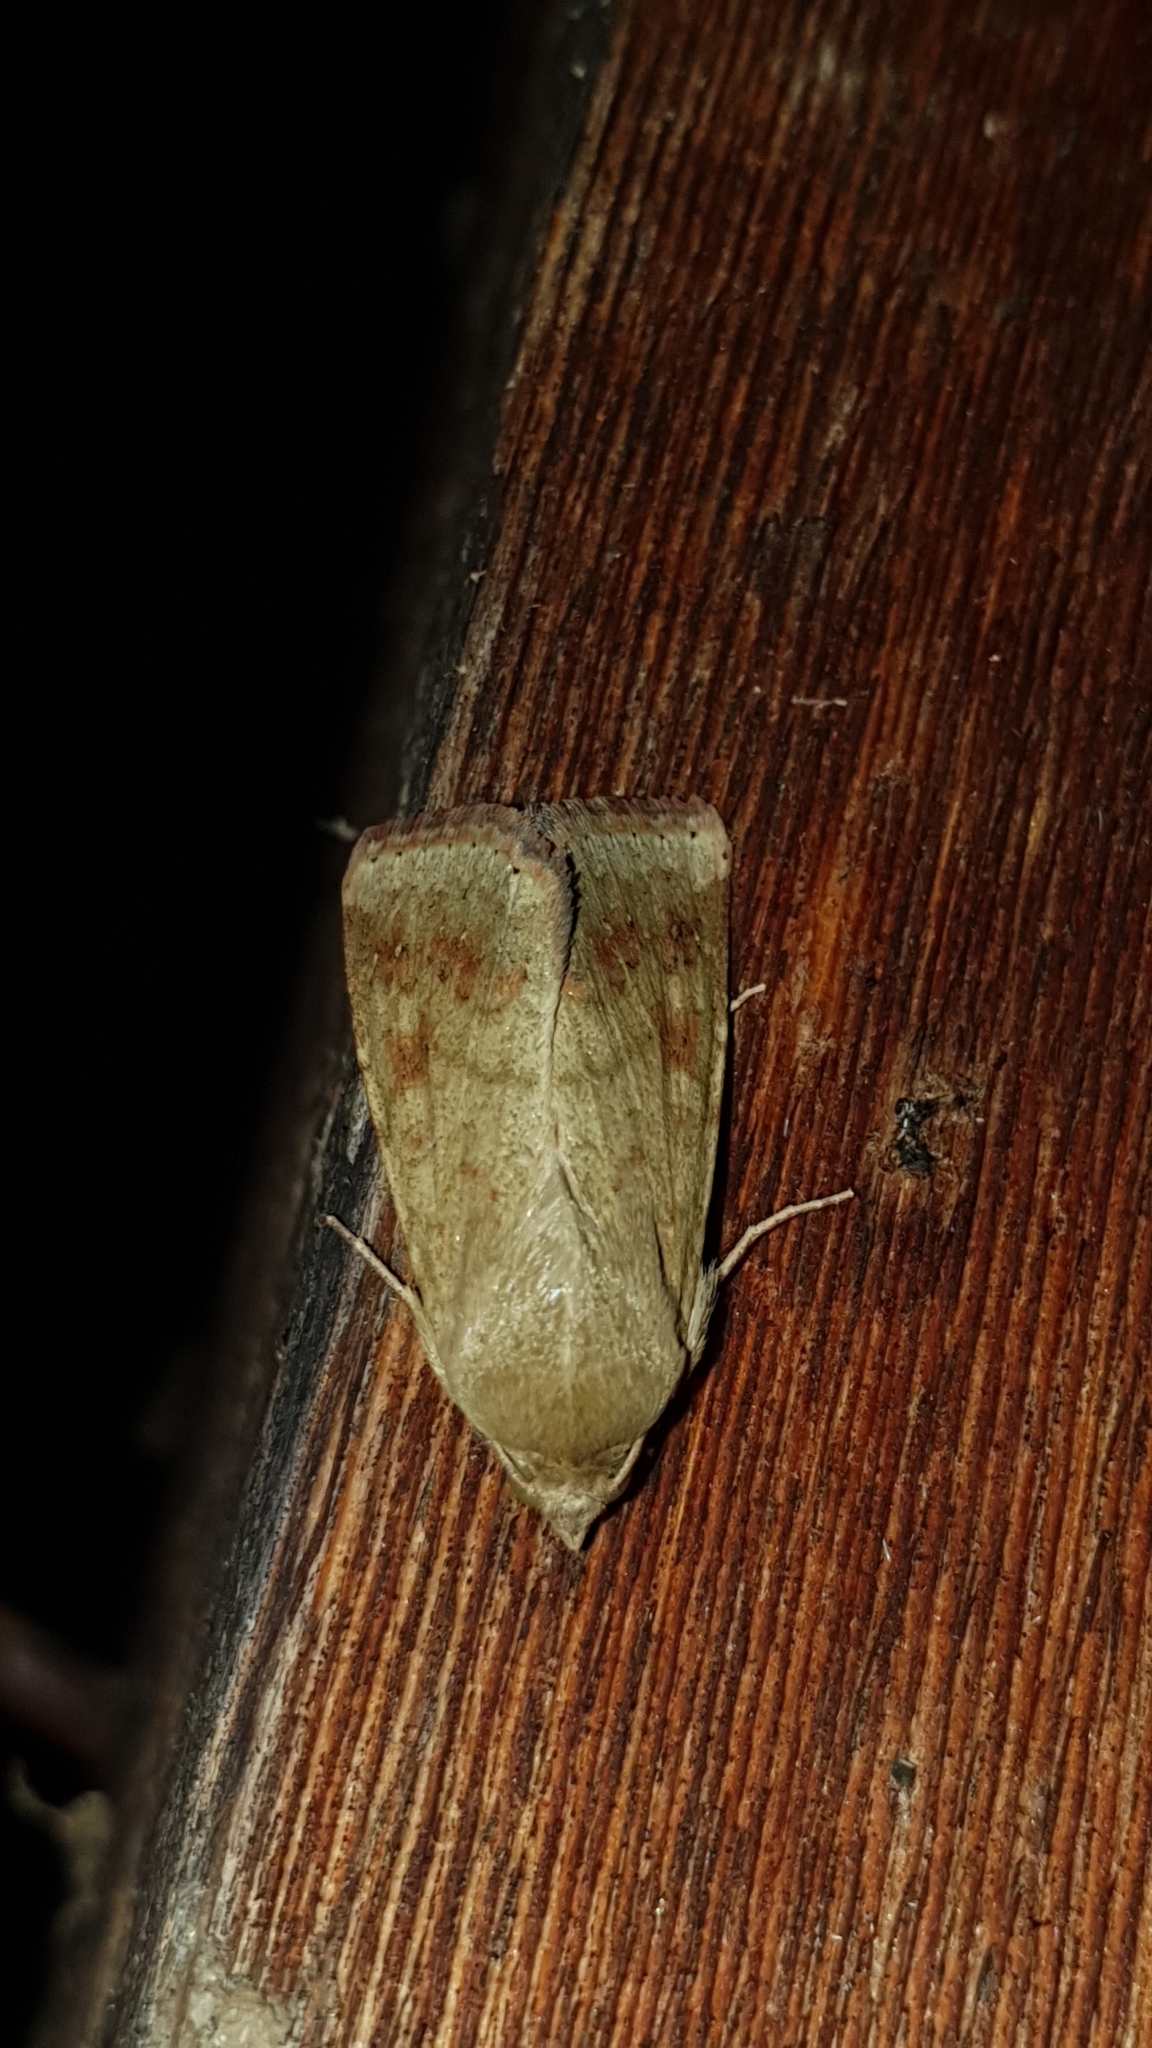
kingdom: Animalia
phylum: Arthropoda
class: Insecta
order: Lepidoptera
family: Noctuidae
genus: Helicoverpa
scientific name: Helicoverpa armigera
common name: Cotton bollworm
